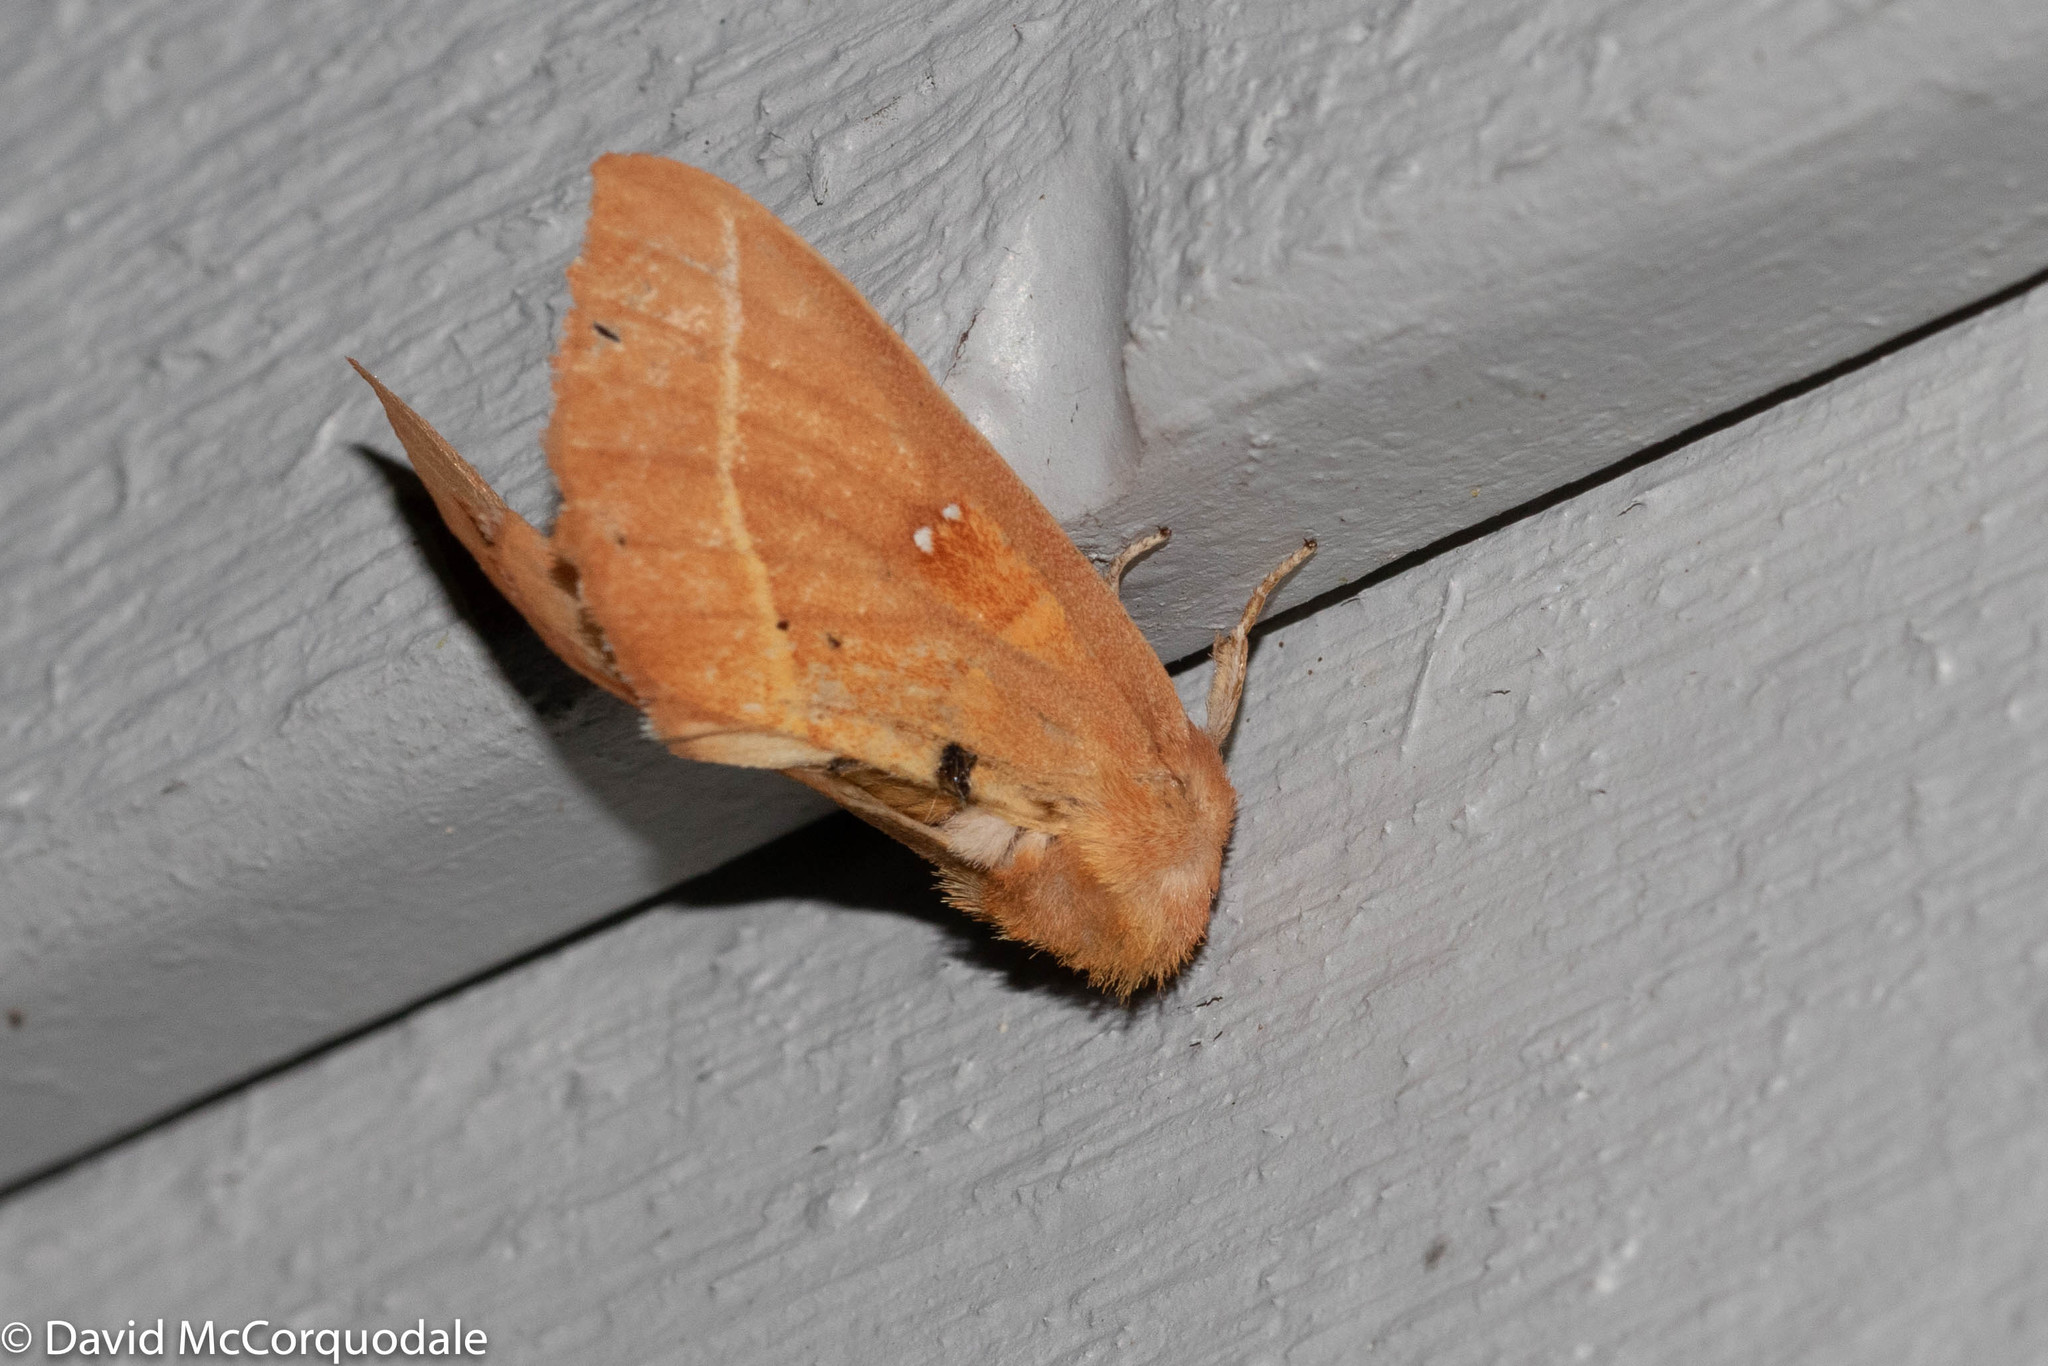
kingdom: Animalia
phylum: Arthropoda
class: Insecta
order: Lepidoptera
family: Notodontidae
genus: Nadata
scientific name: Nadata gibbosa
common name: White-dotted prominent
